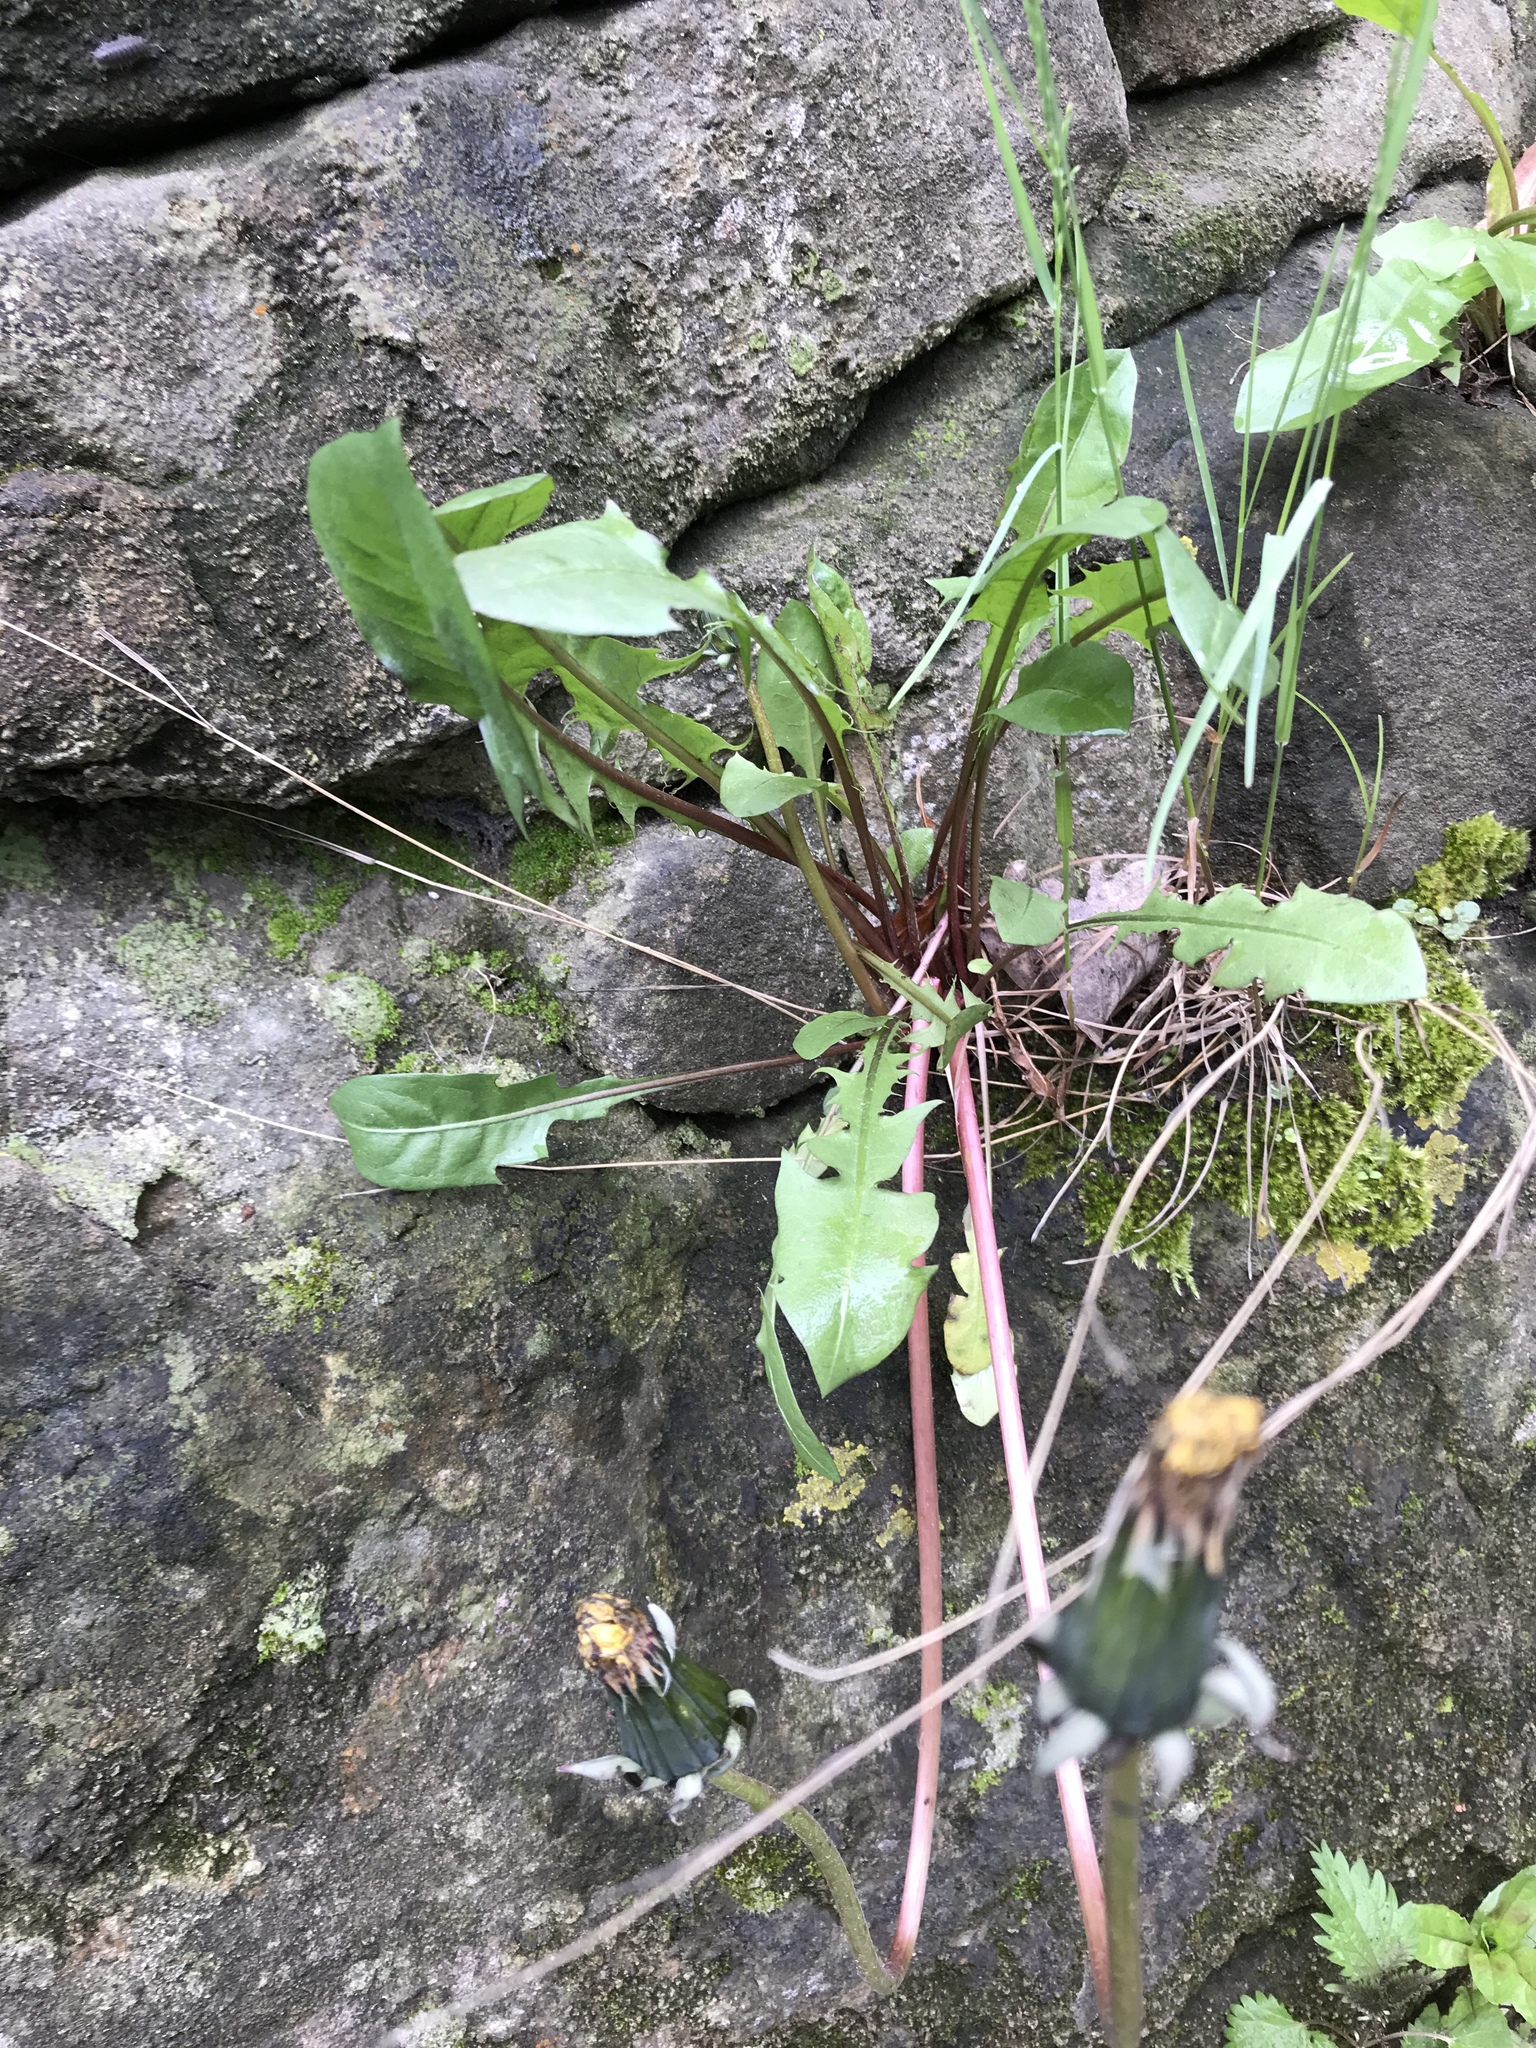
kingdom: Plantae
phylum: Tracheophyta
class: Magnoliopsida
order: Asterales
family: Asteraceae
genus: Taraxacum
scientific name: Taraxacum officinale
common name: Common dandelion
